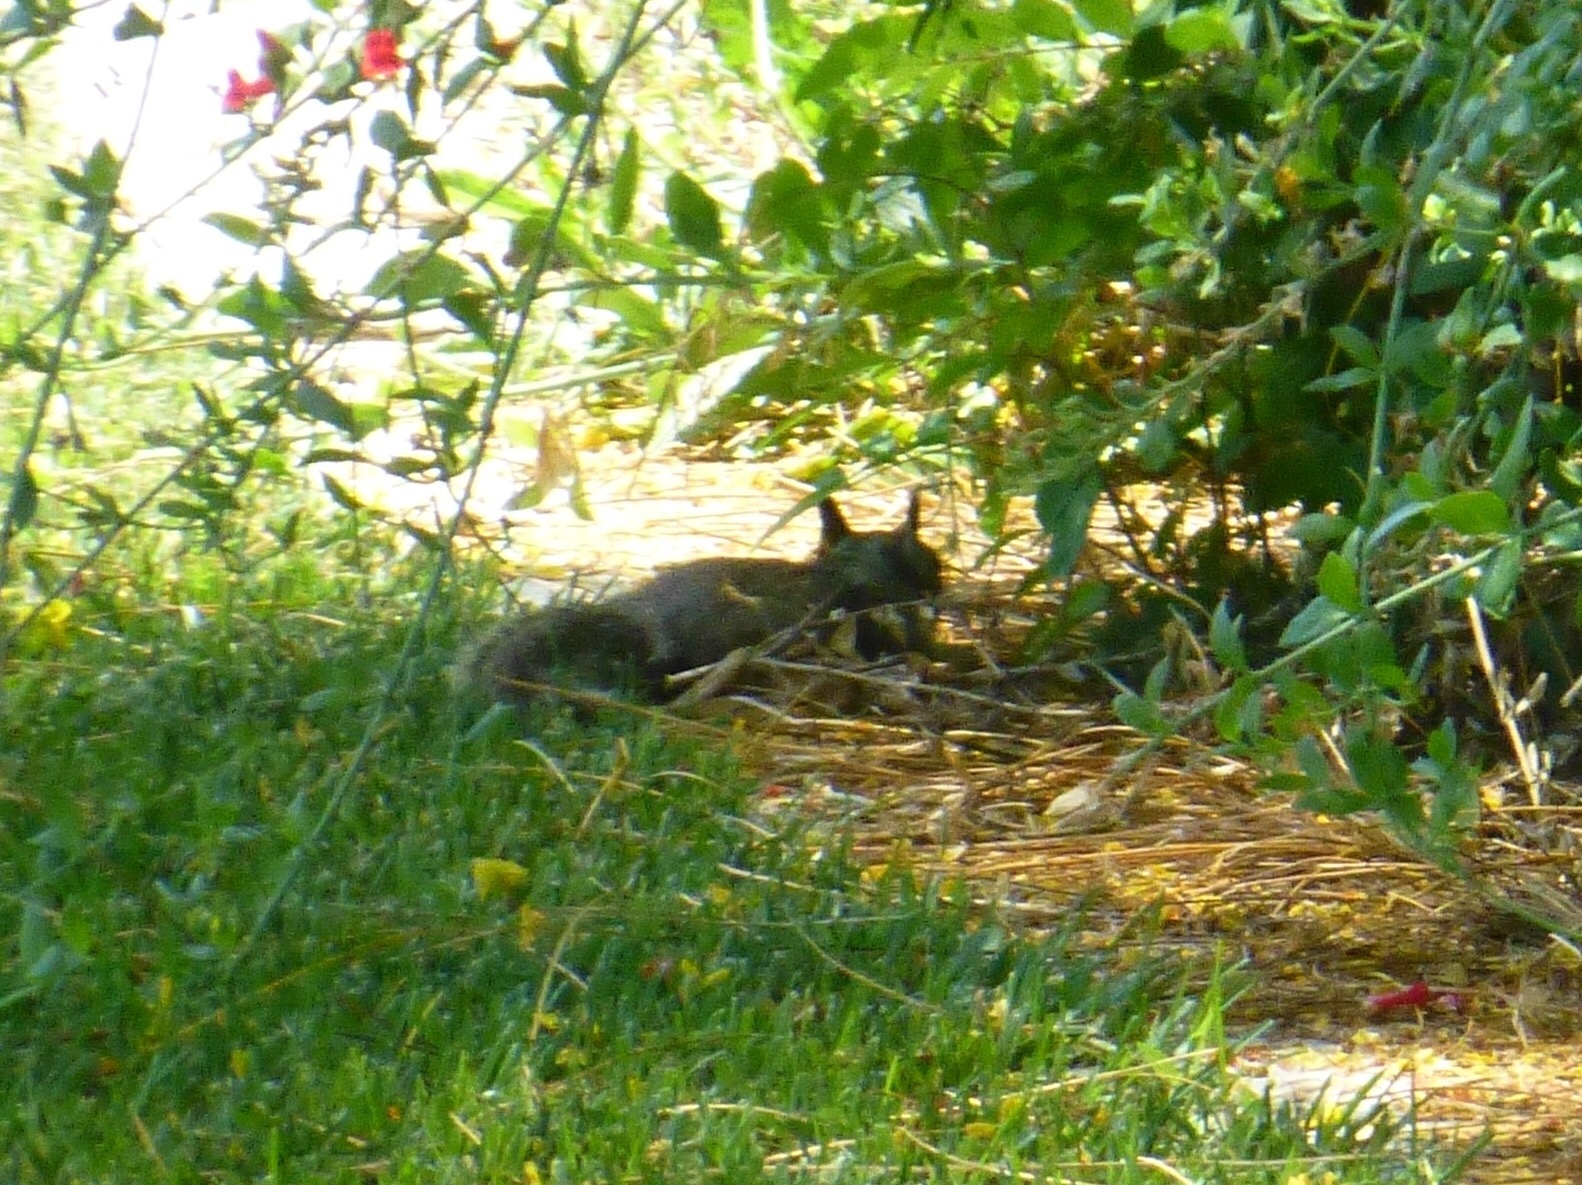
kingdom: Animalia
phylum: Chordata
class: Mammalia
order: Rodentia
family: Sciuridae
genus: Otospermophilus
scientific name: Otospermophilus beecheyi
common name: California ground squirrel
